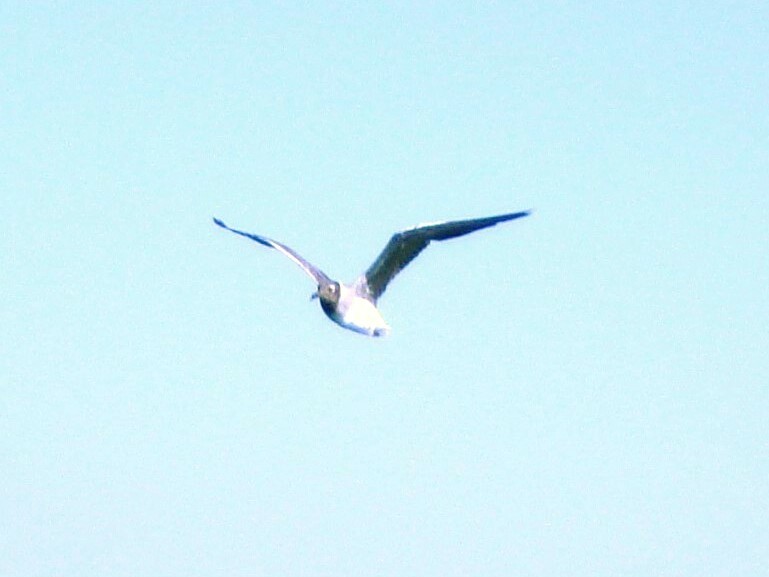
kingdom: Animalia
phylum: Chordata
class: Aves
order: Charadriiformes
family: Laridae
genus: Ichthyaetus
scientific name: Ichthyaetus leucophthalmus
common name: White-eyed gull
